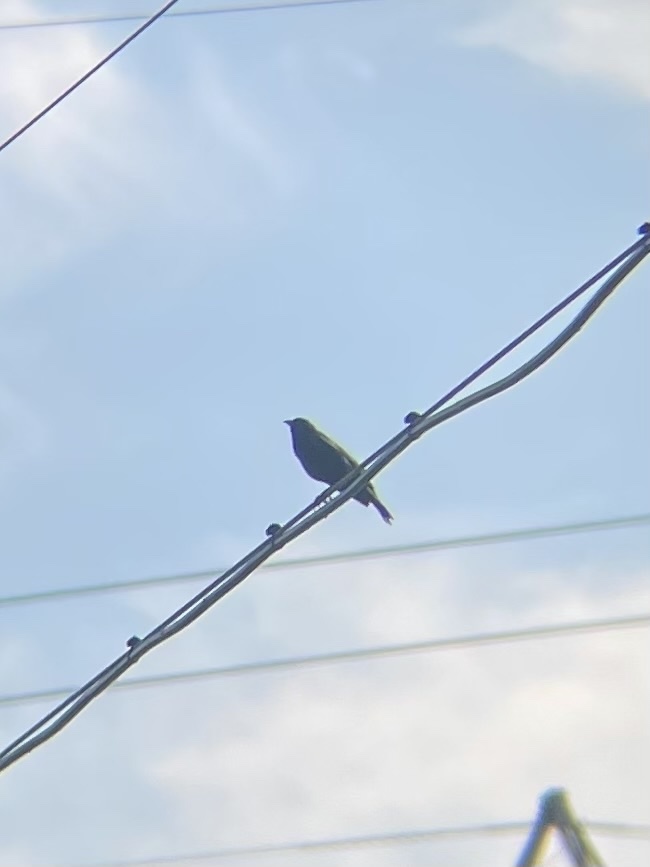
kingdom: Animalia
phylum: Chordata
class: Aves
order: Passeriformes
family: Icteridae
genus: Agelaius
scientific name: Agelaius phoeniceus
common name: Red-winged blackbird
